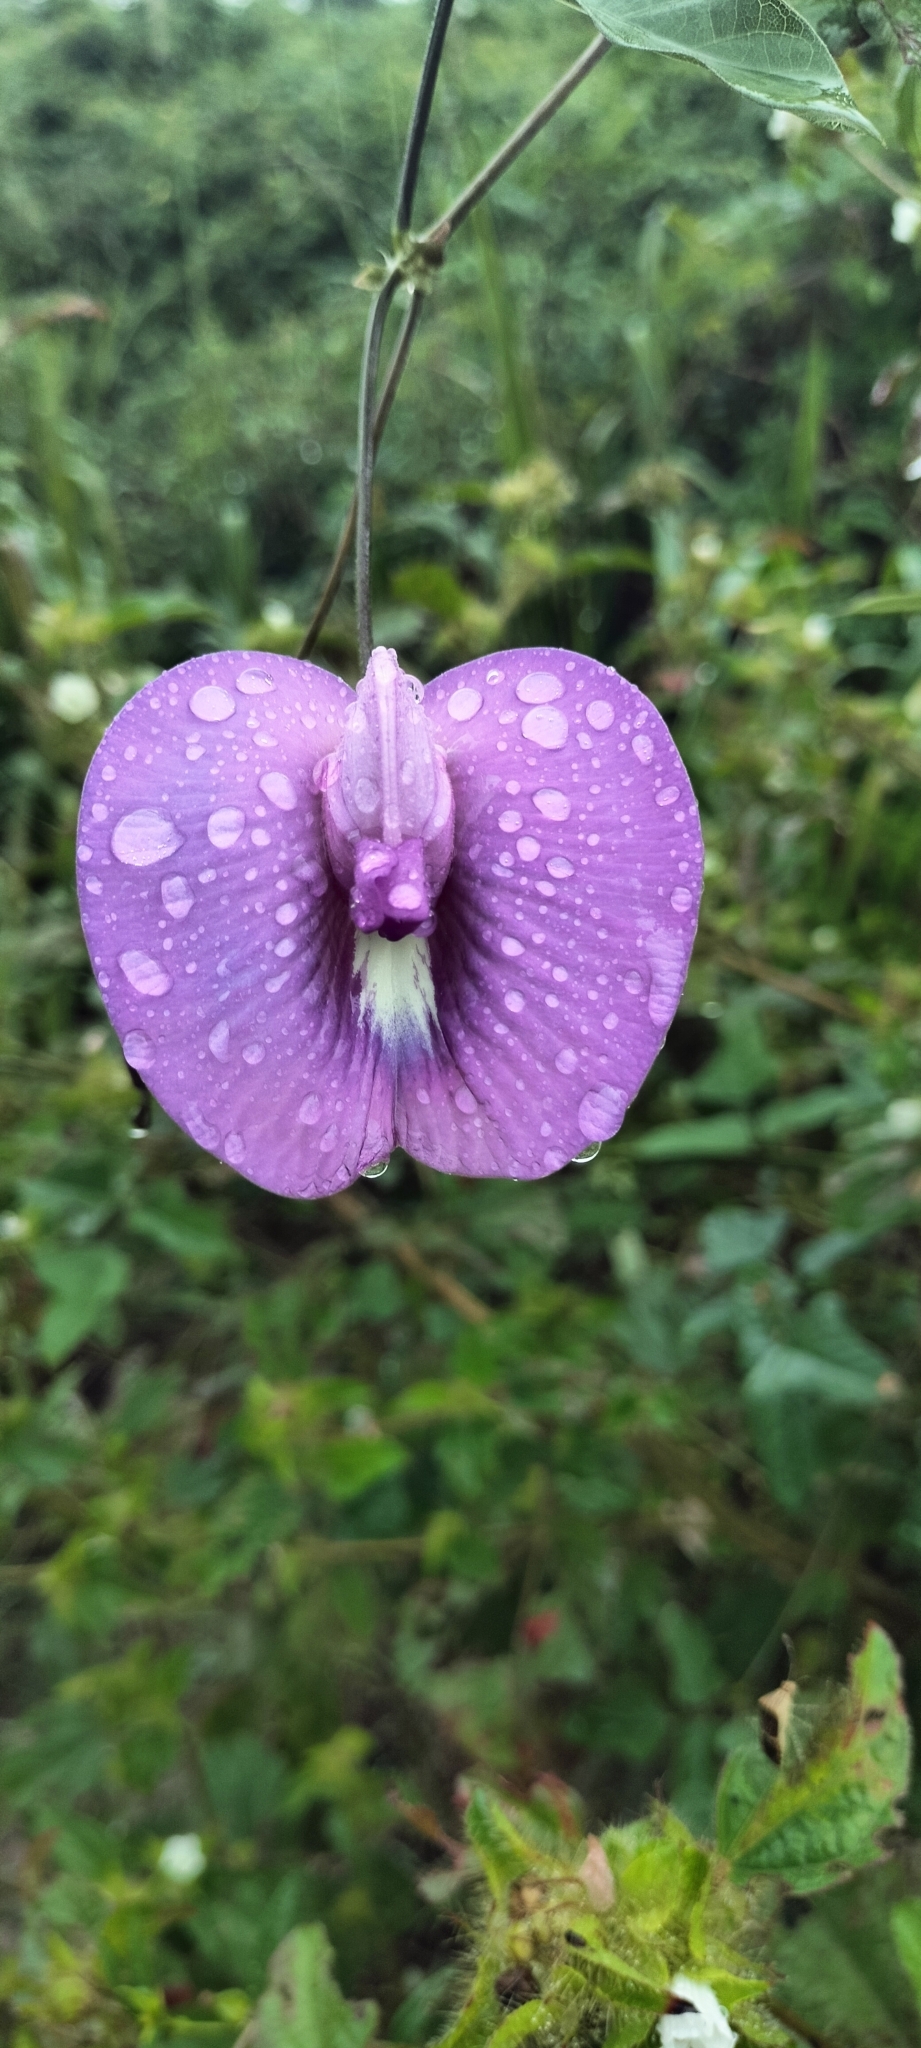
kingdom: Plantae
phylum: Tracheophyta
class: Magnoliopsida
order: Fabales
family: Fabaceae
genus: Centrosema
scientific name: Centrosema virginianum
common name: Butterfly-pea
